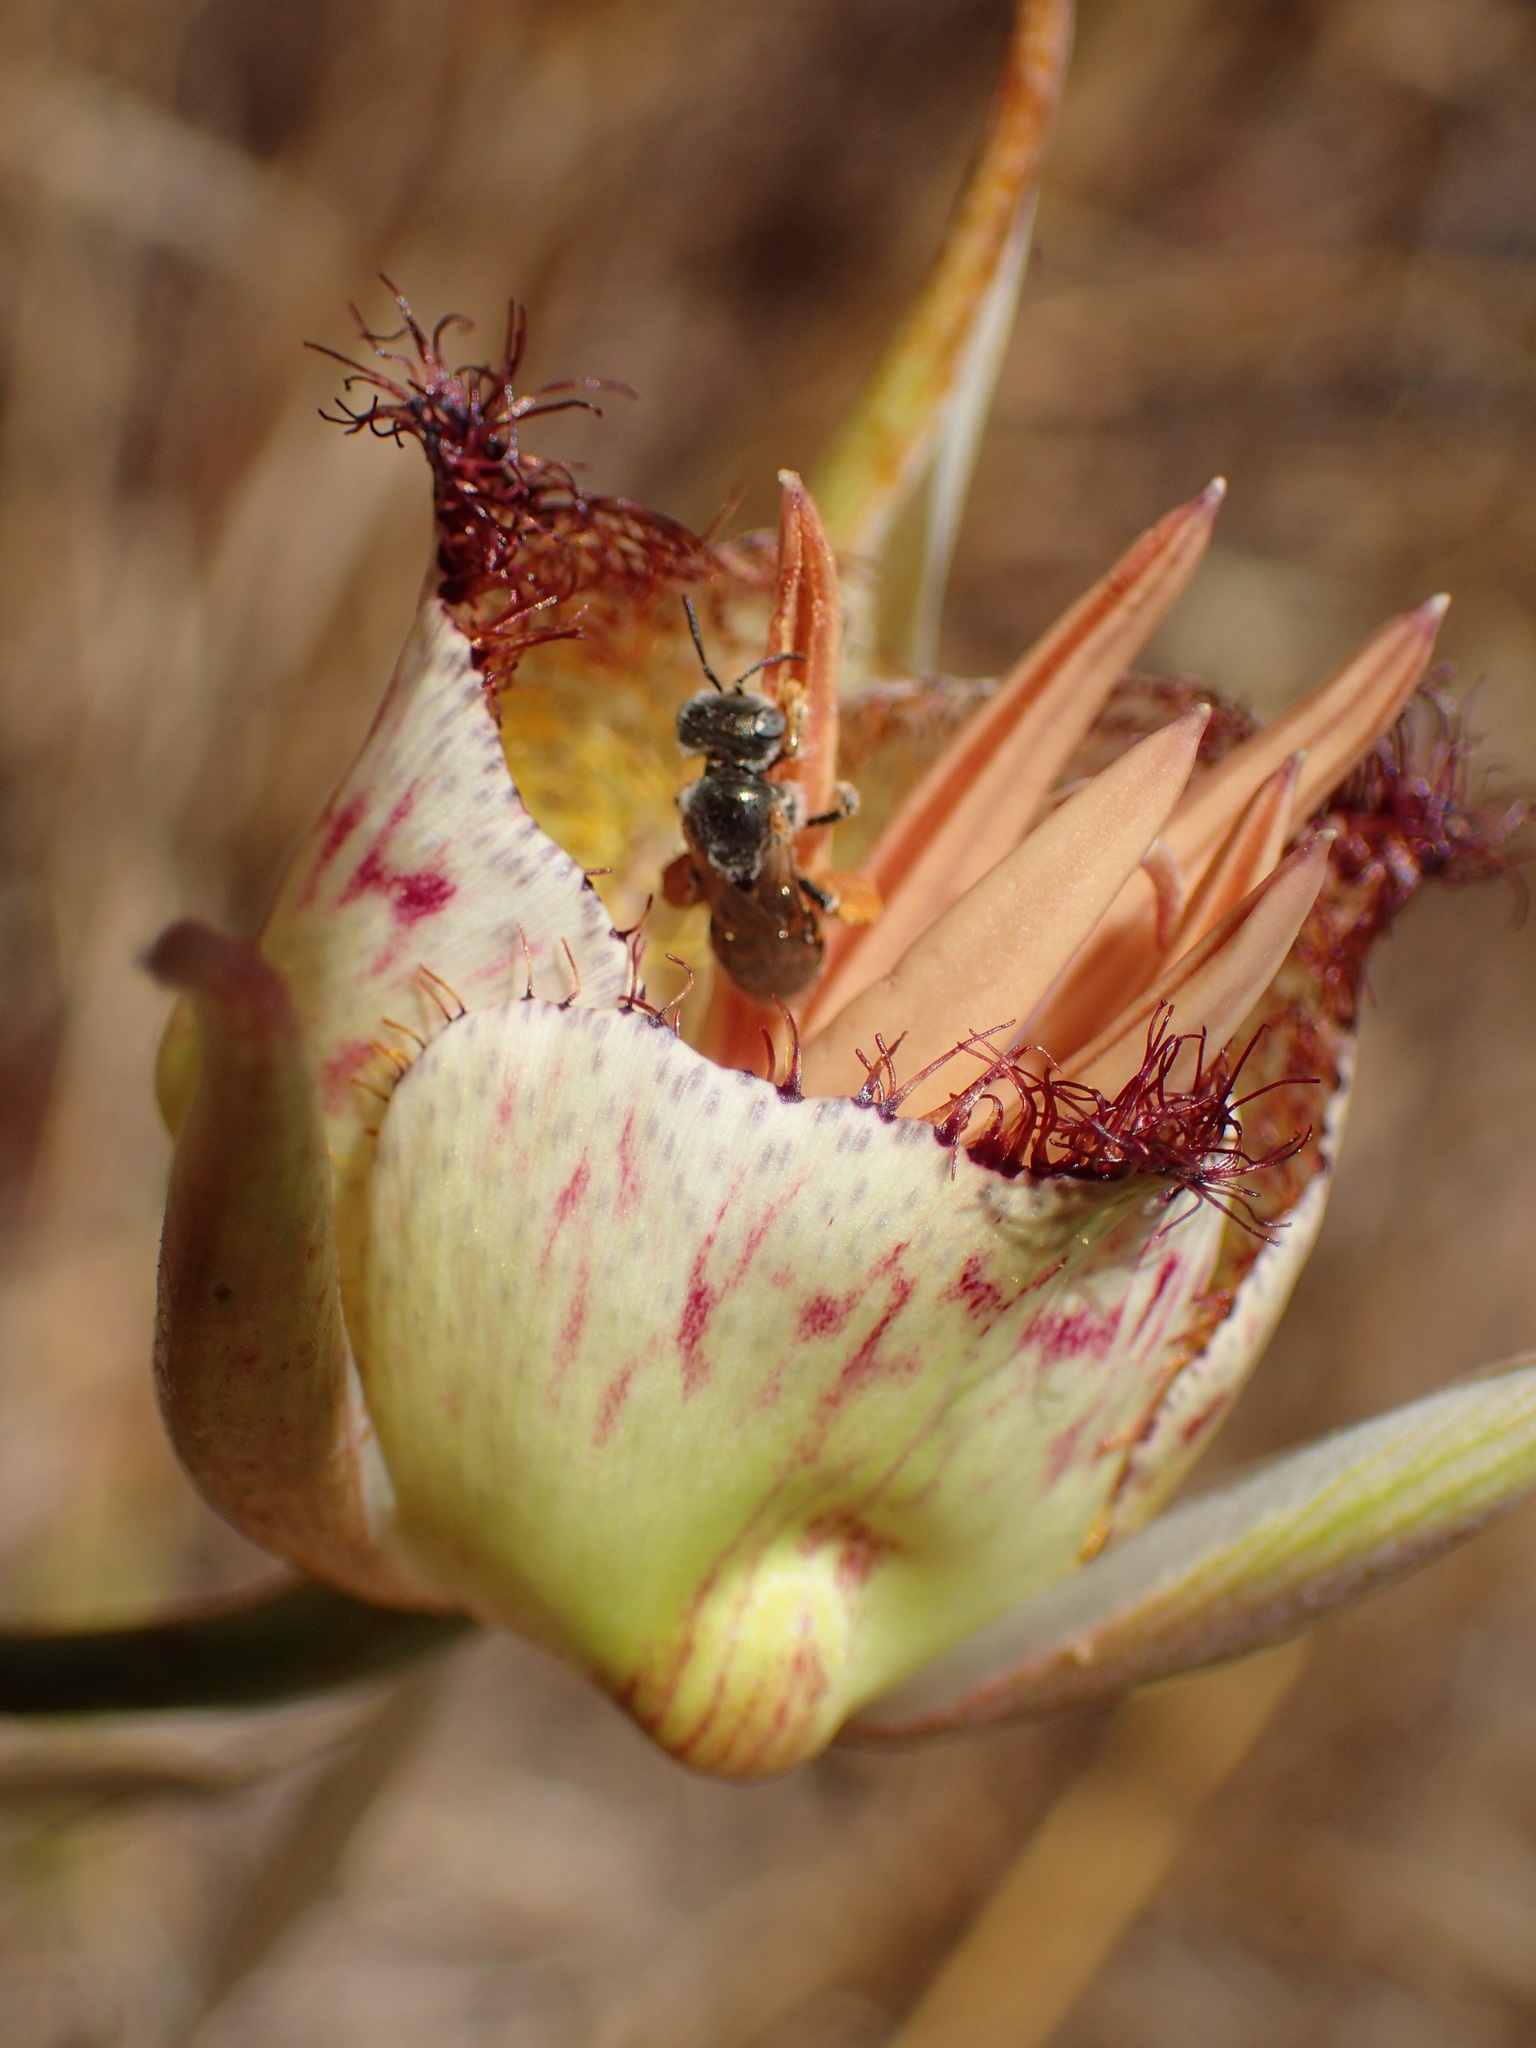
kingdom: Plantae
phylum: Tracheophyta
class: Liliopsida
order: Liliales
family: Liliaceae
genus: Calochortus
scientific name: Calochortus fimbriatus
